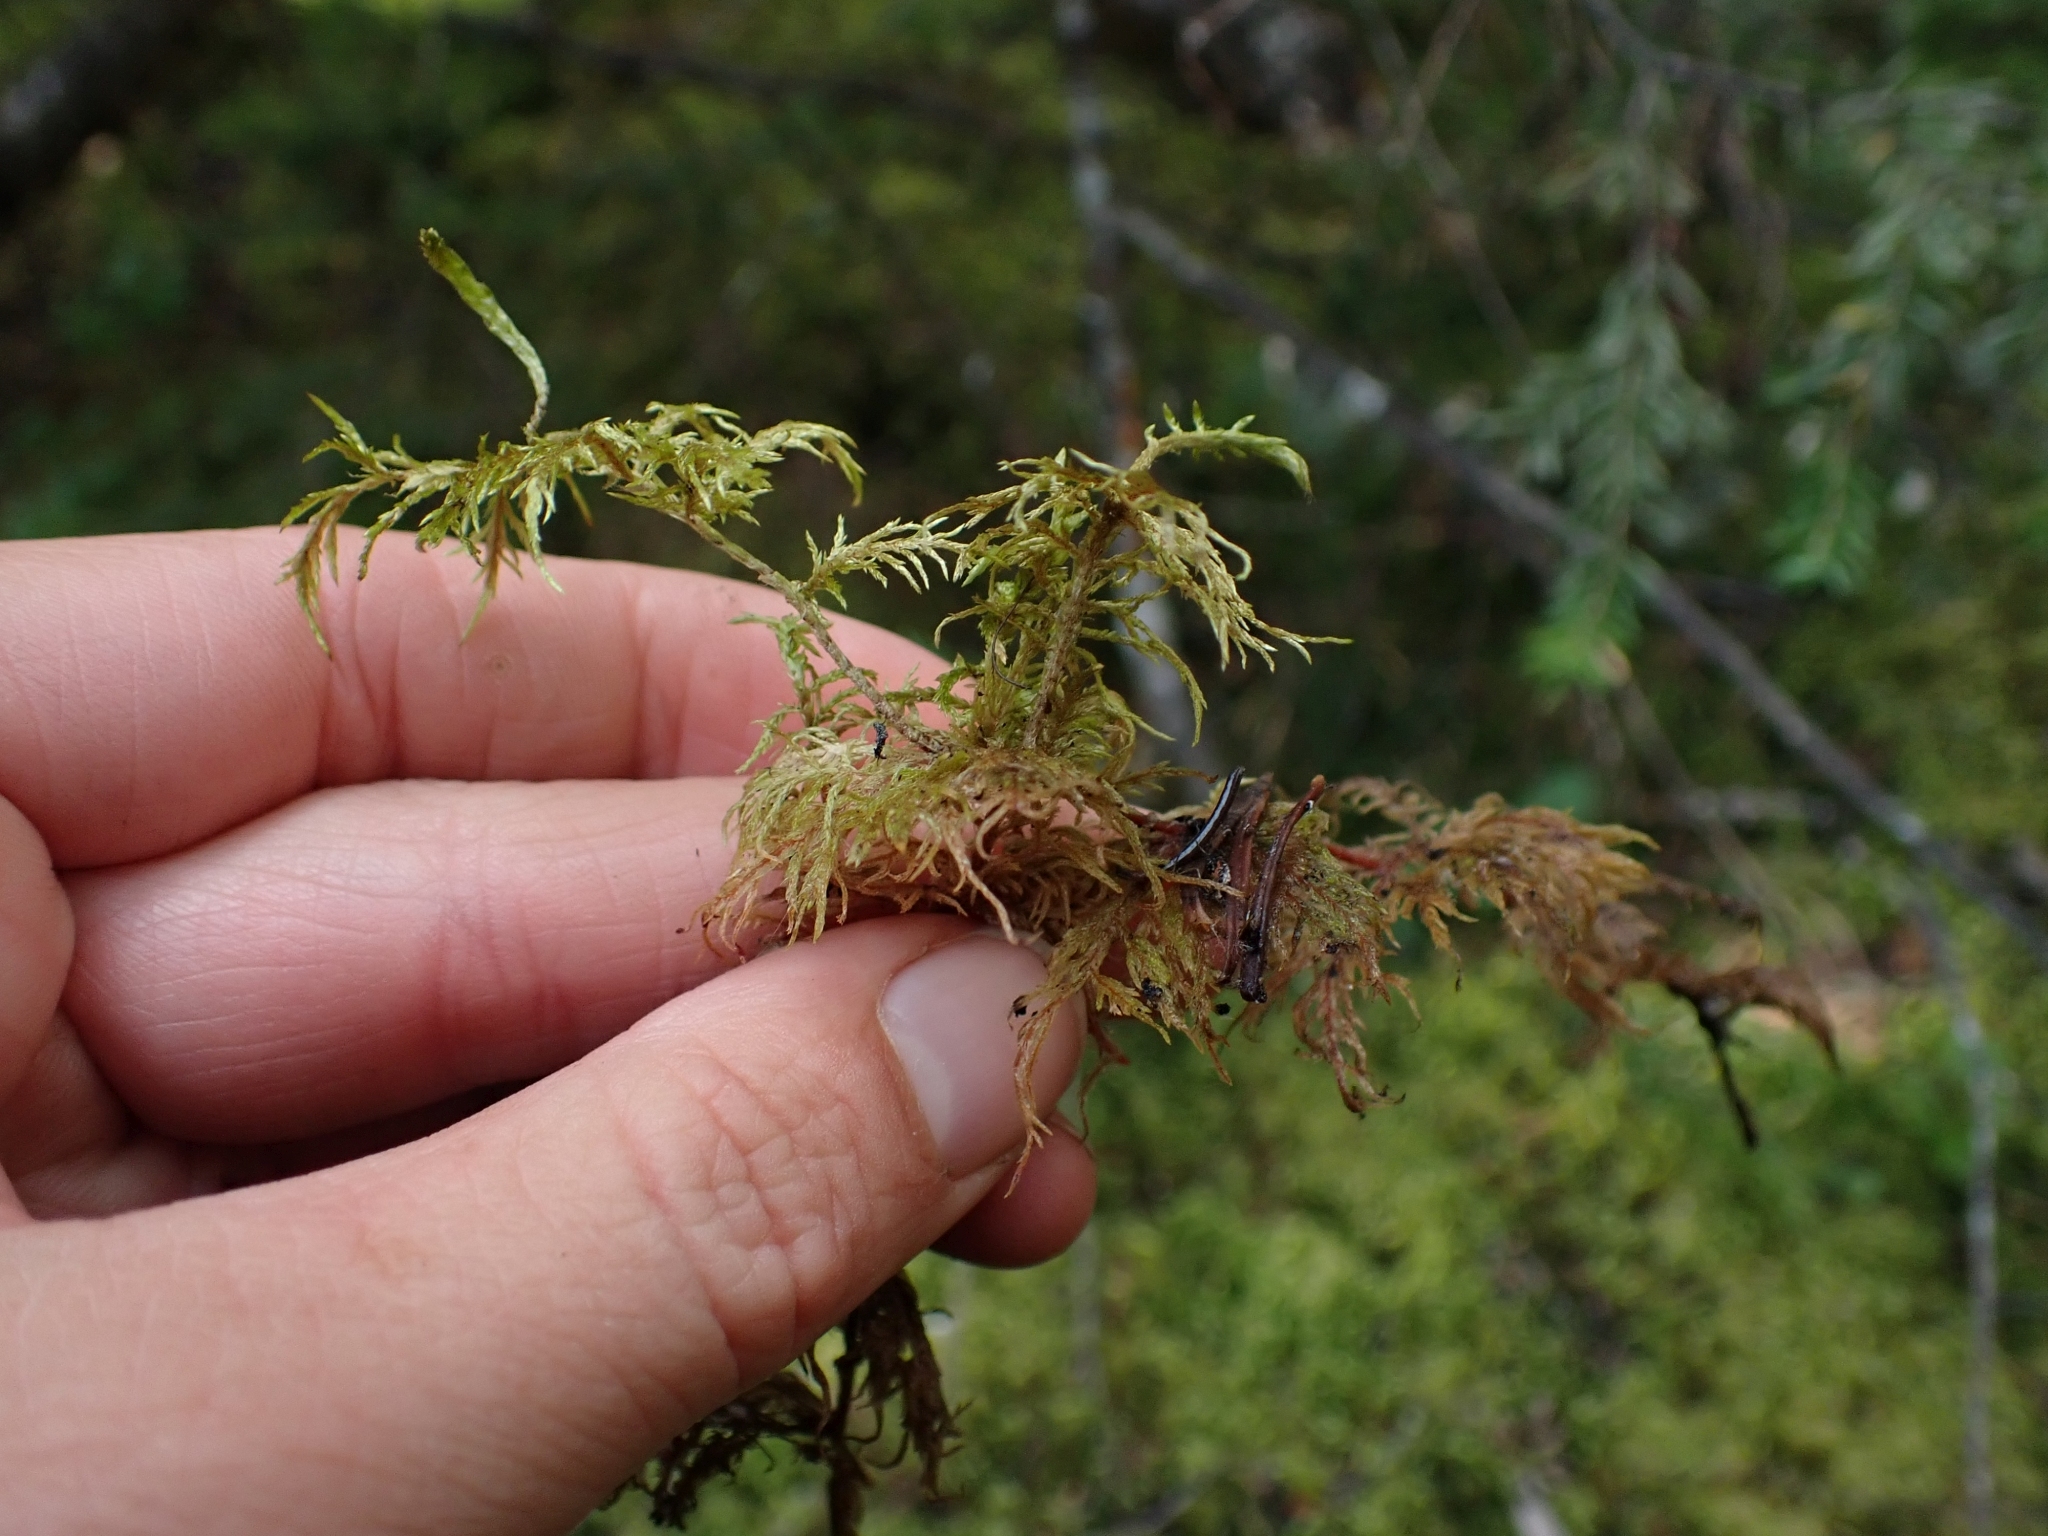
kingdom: Plantae
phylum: Bryophyta
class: Bryopsida
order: Hypnales
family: Hylocomiaceae
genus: Hylocomium
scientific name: Hylocomium splendens
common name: Stairstep moss
